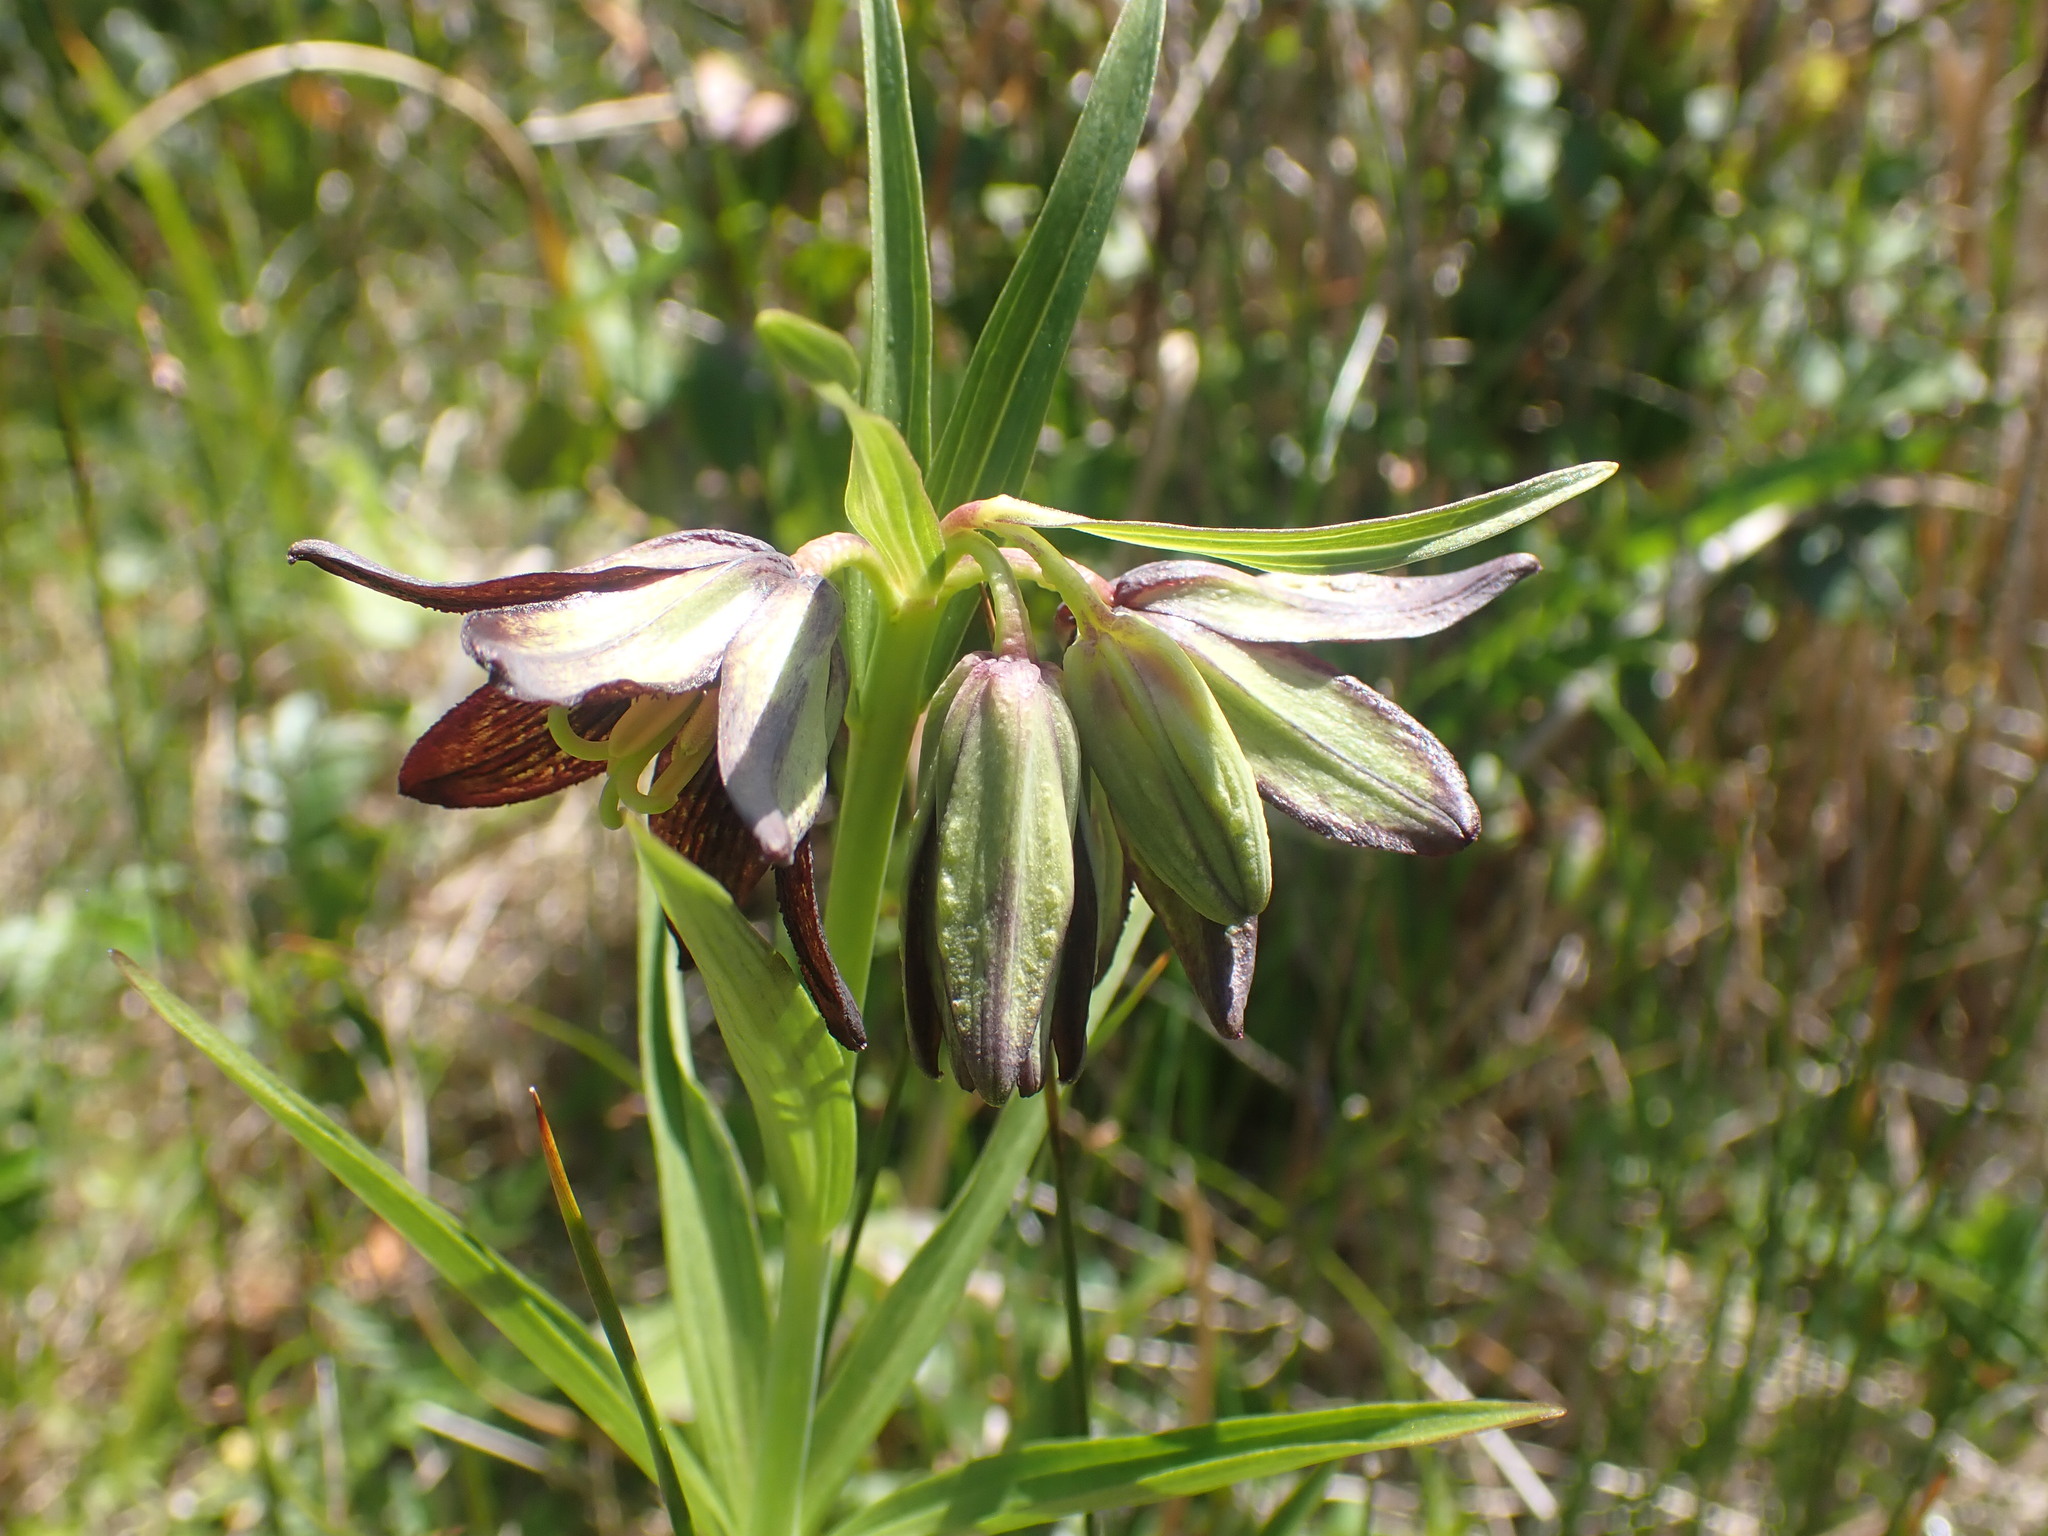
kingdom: Plantae
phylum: Tracheophyta
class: Liliopsida
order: Liliales
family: Liliaceae
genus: Fritillaria
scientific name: Fritillaria camschatcensis
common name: Kamchatka fritillary
